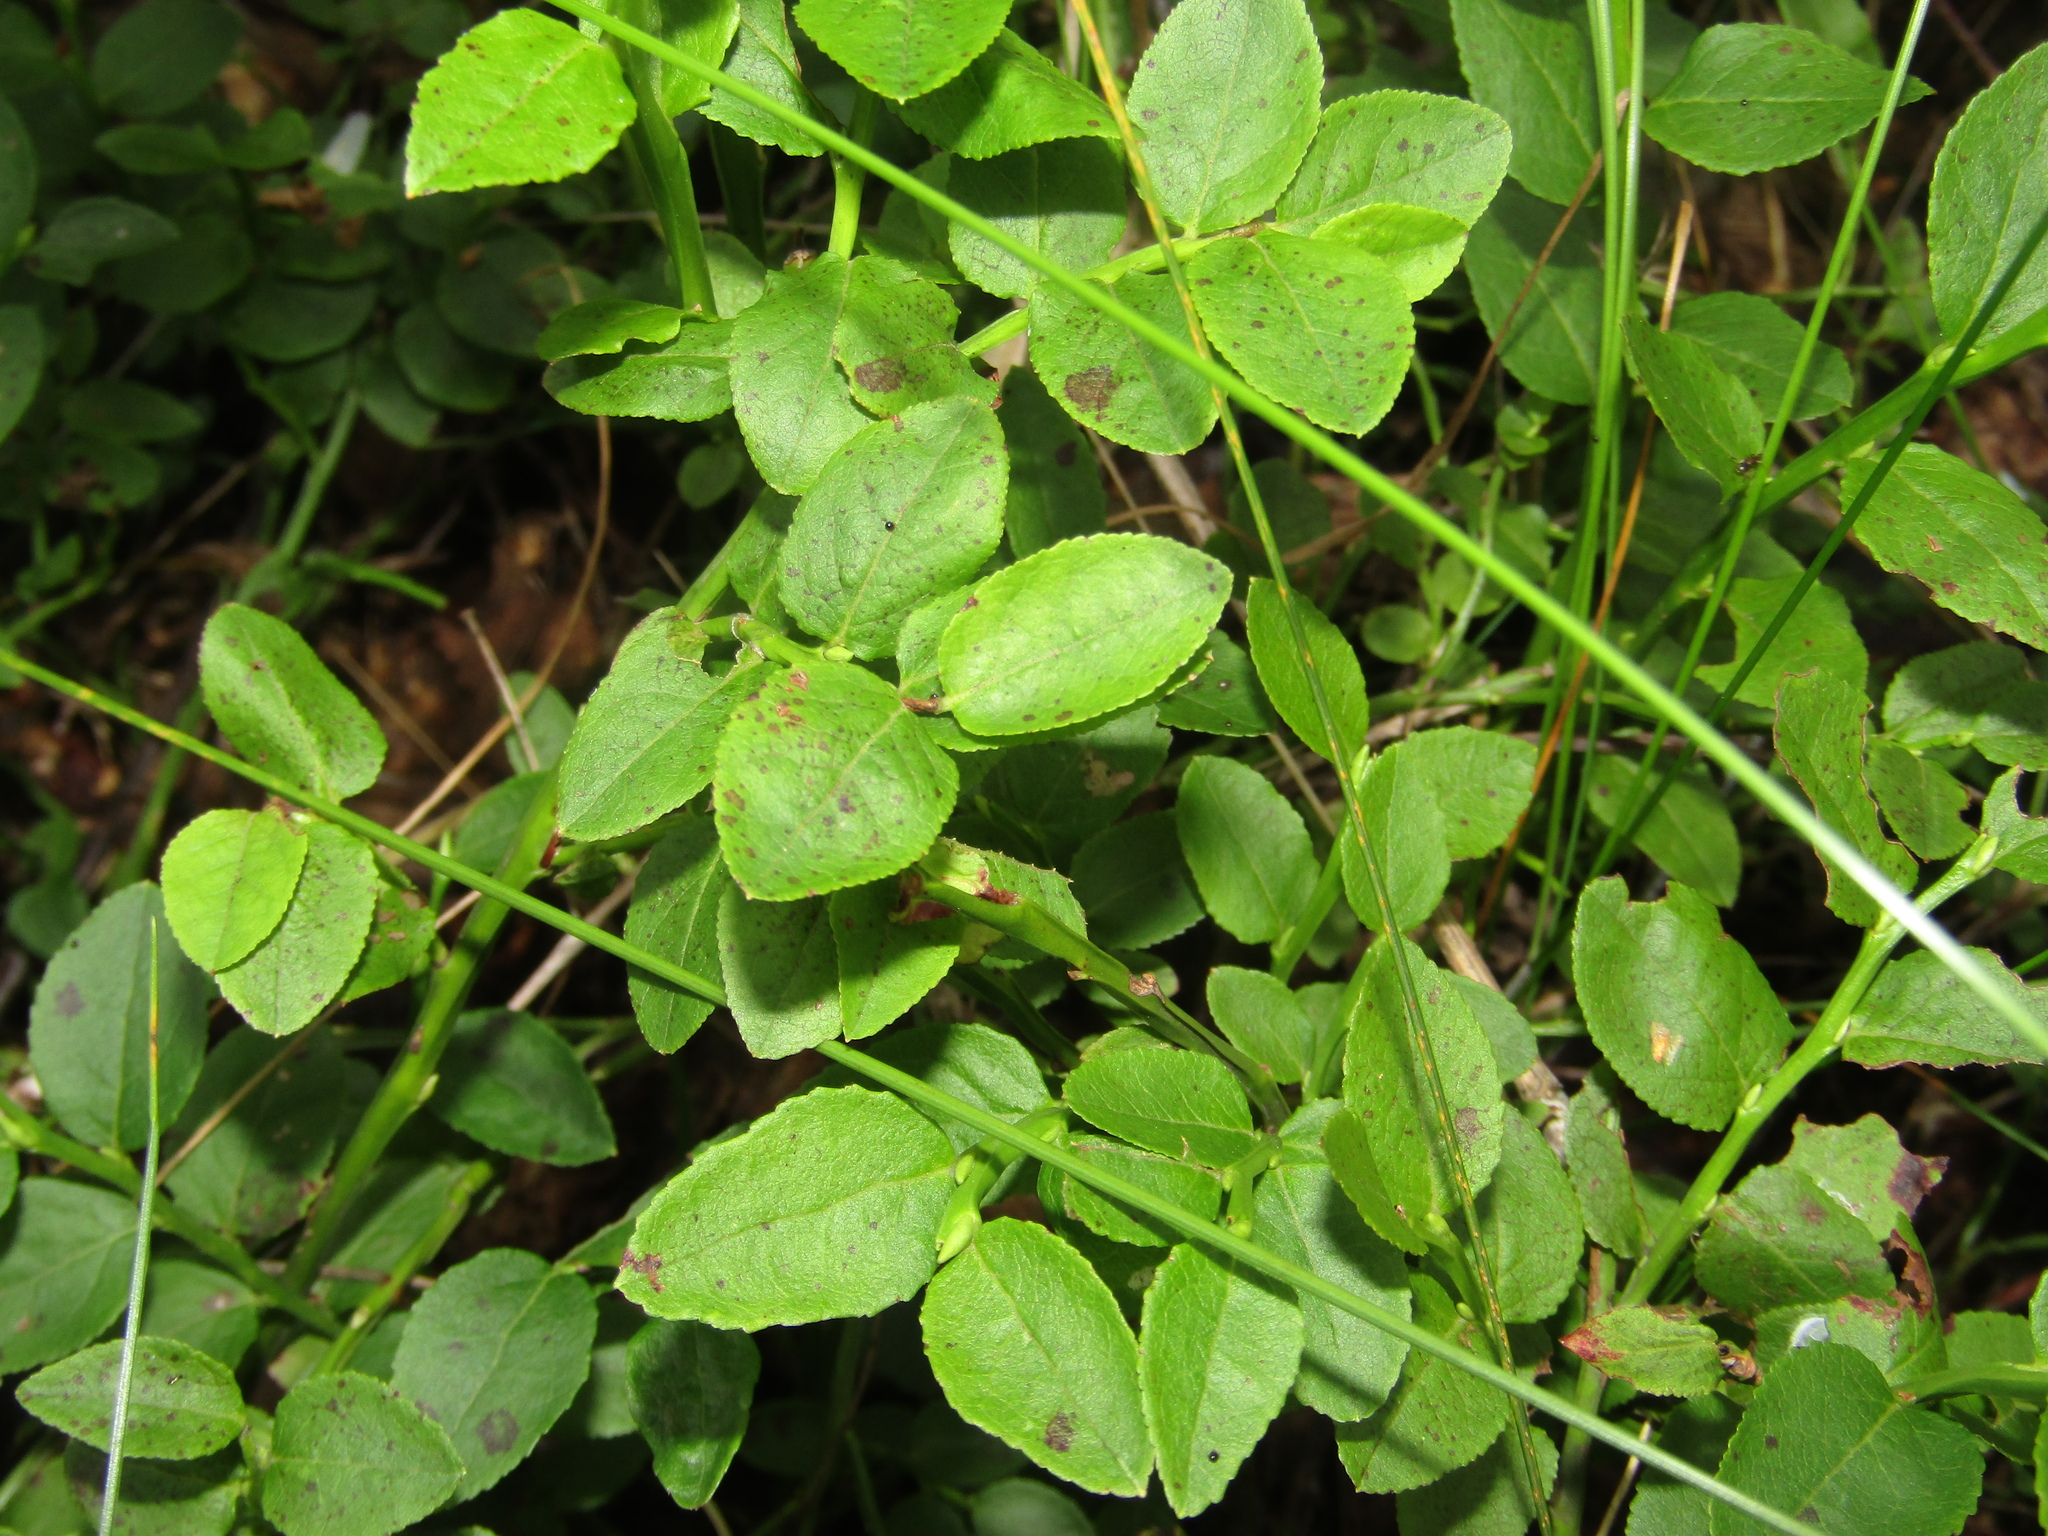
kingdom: Plantae
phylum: Tracheophyta
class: Magnoliopsida
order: Ericales
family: Ericaceae
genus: Vaccinium
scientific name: Vaccinium myrtillus
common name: Bilberry
